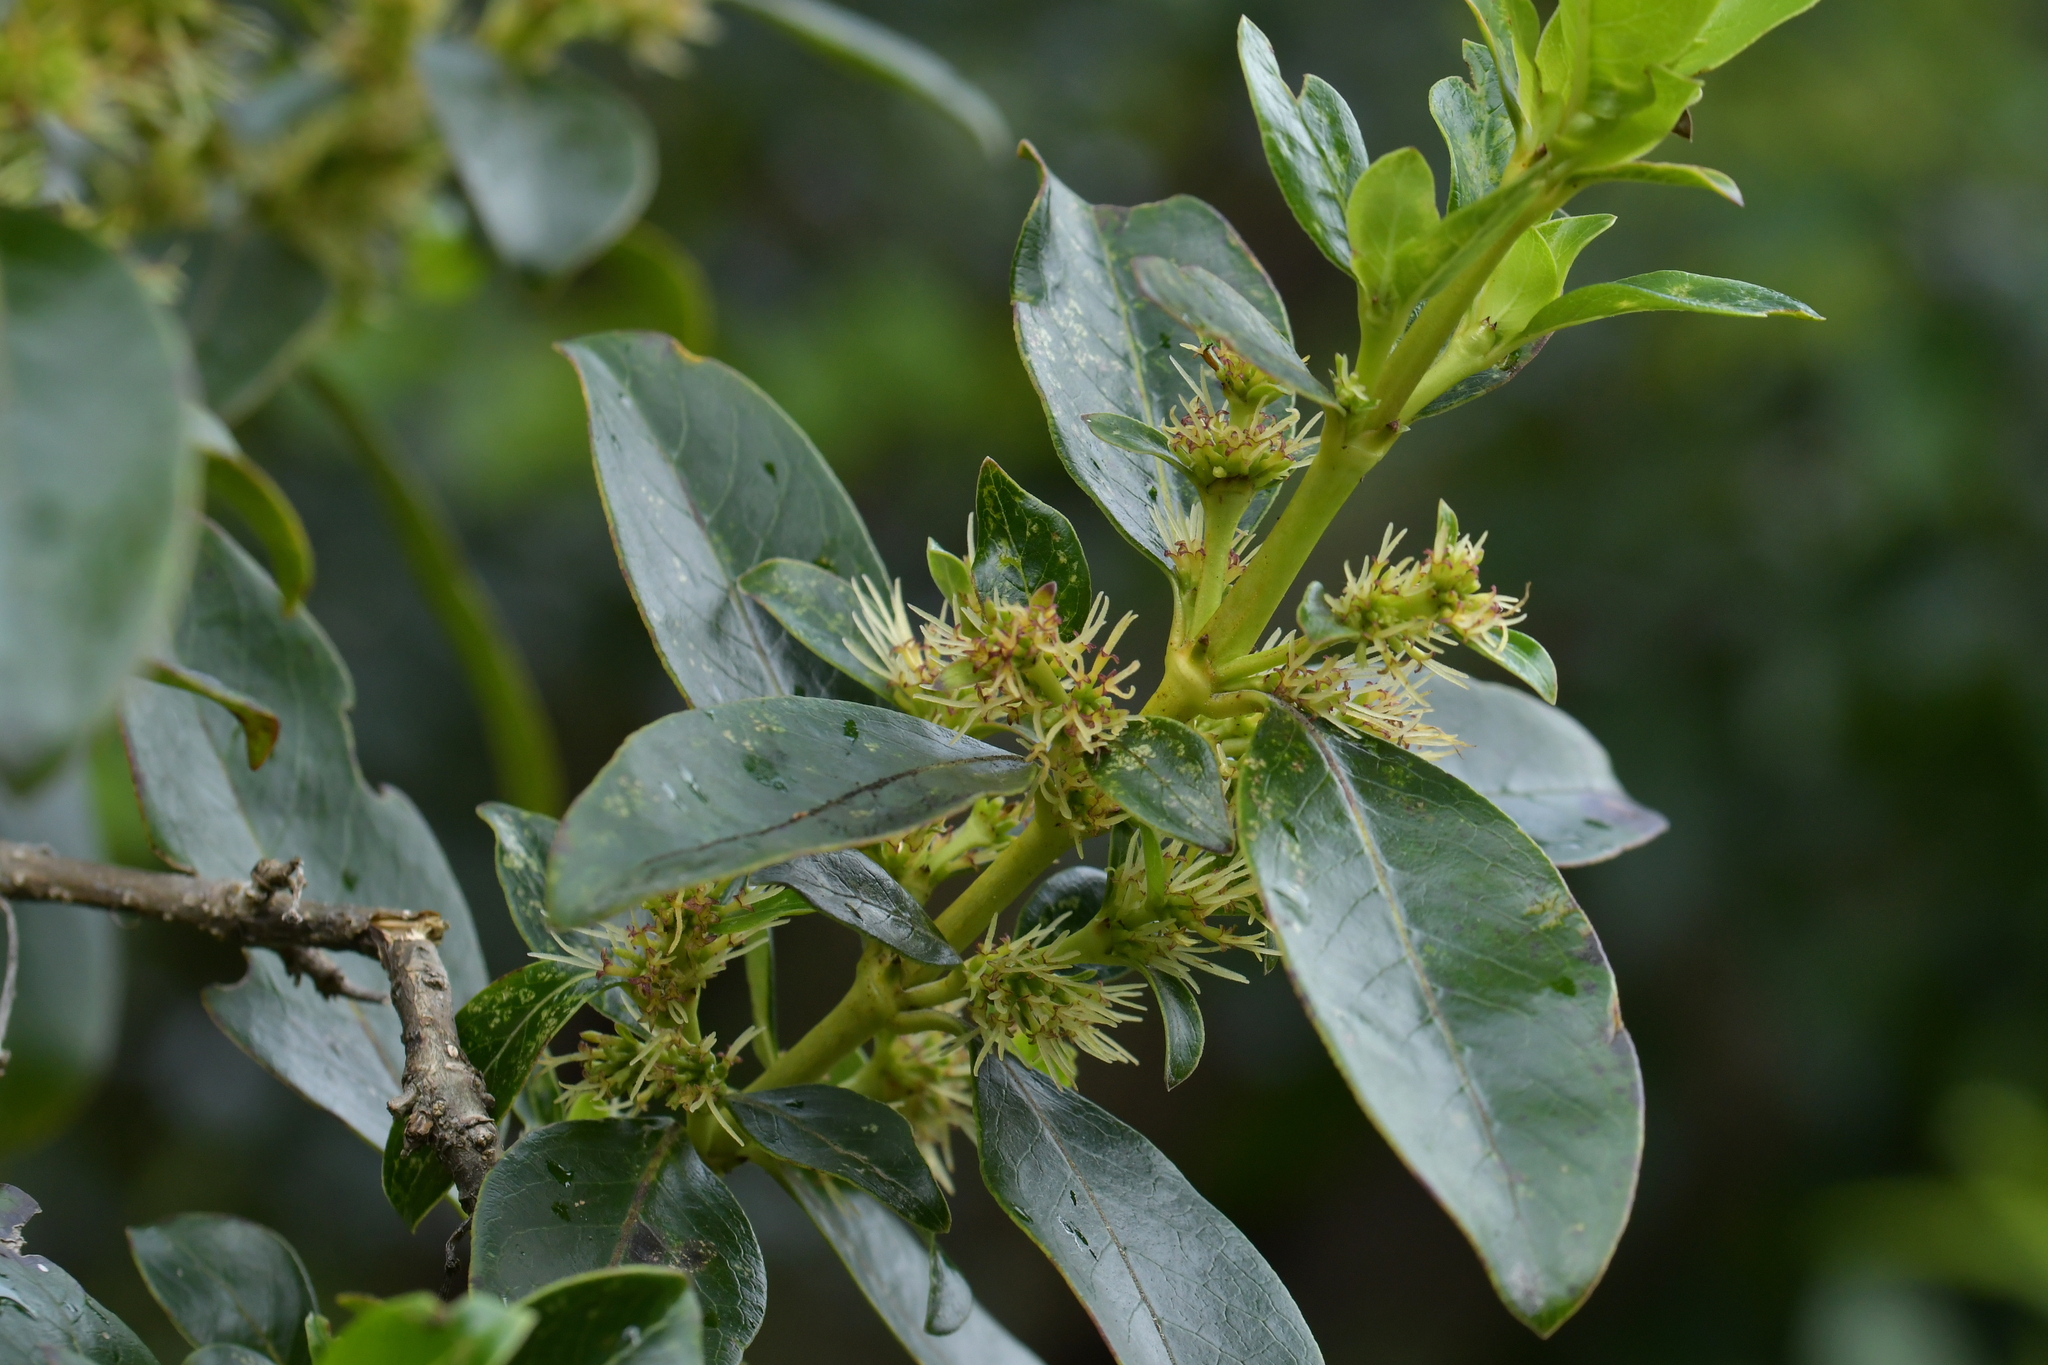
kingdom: Plantae
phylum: Tracheophyta
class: Magnoliopsida
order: Gentianales
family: Rubiaceae
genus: Coprosma
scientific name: Coprosma robusta
